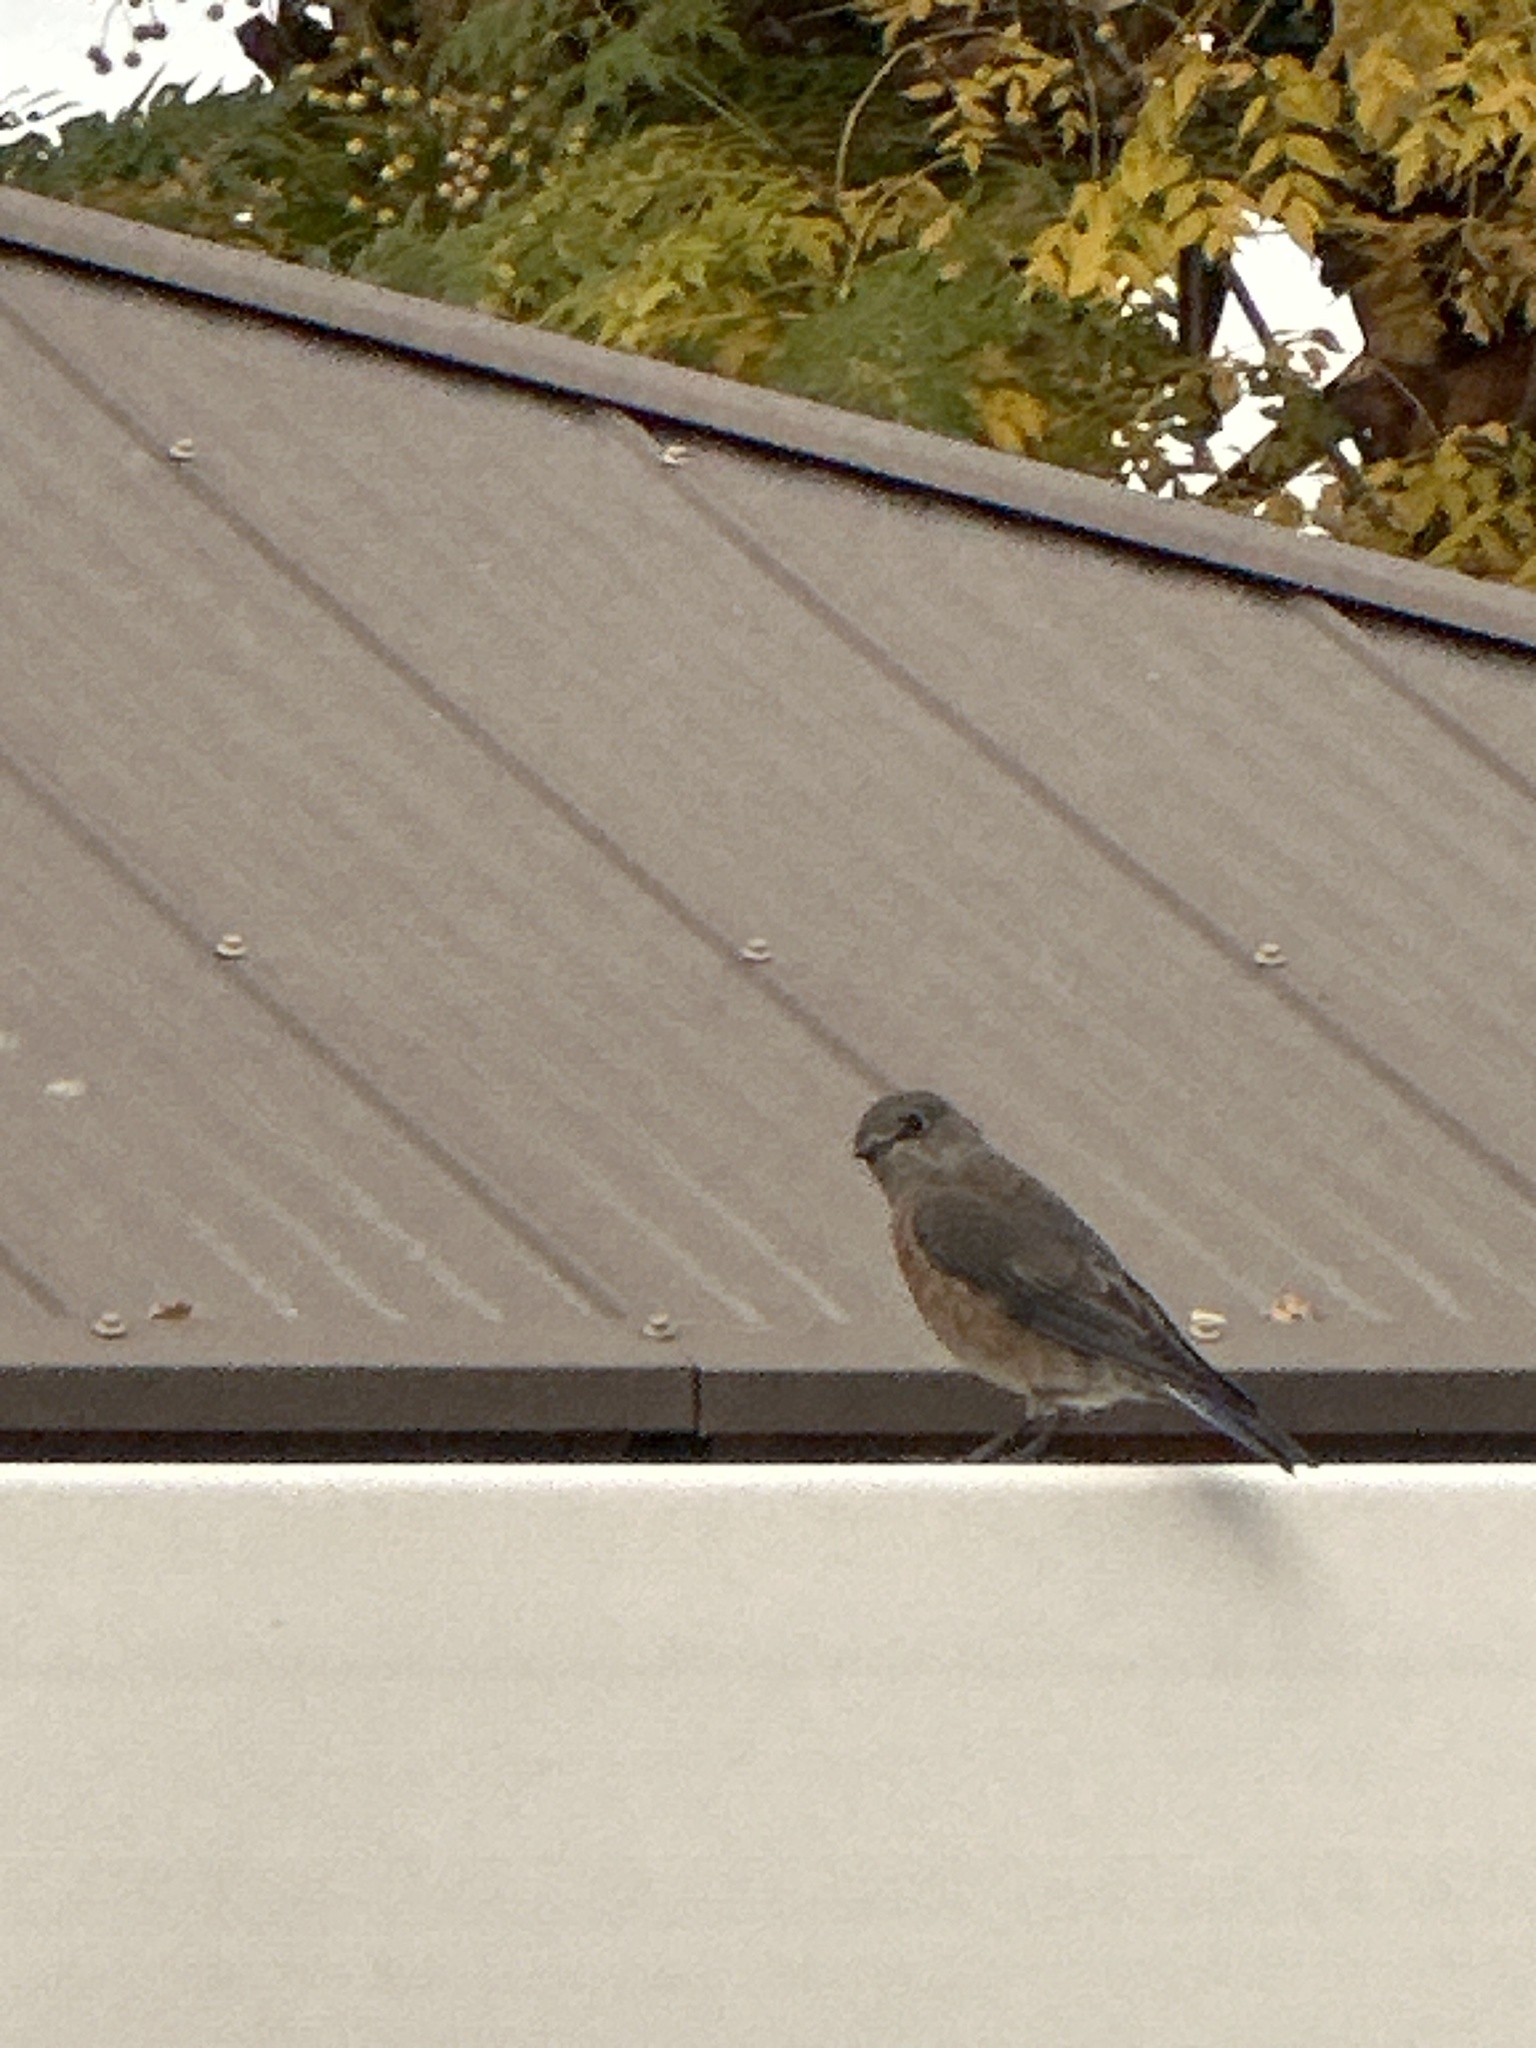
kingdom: Animalia
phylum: Chordata
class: Aves
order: Passeriformes
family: Turdidae
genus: Sialia
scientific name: Sialia mexicana
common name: Western bluebird
